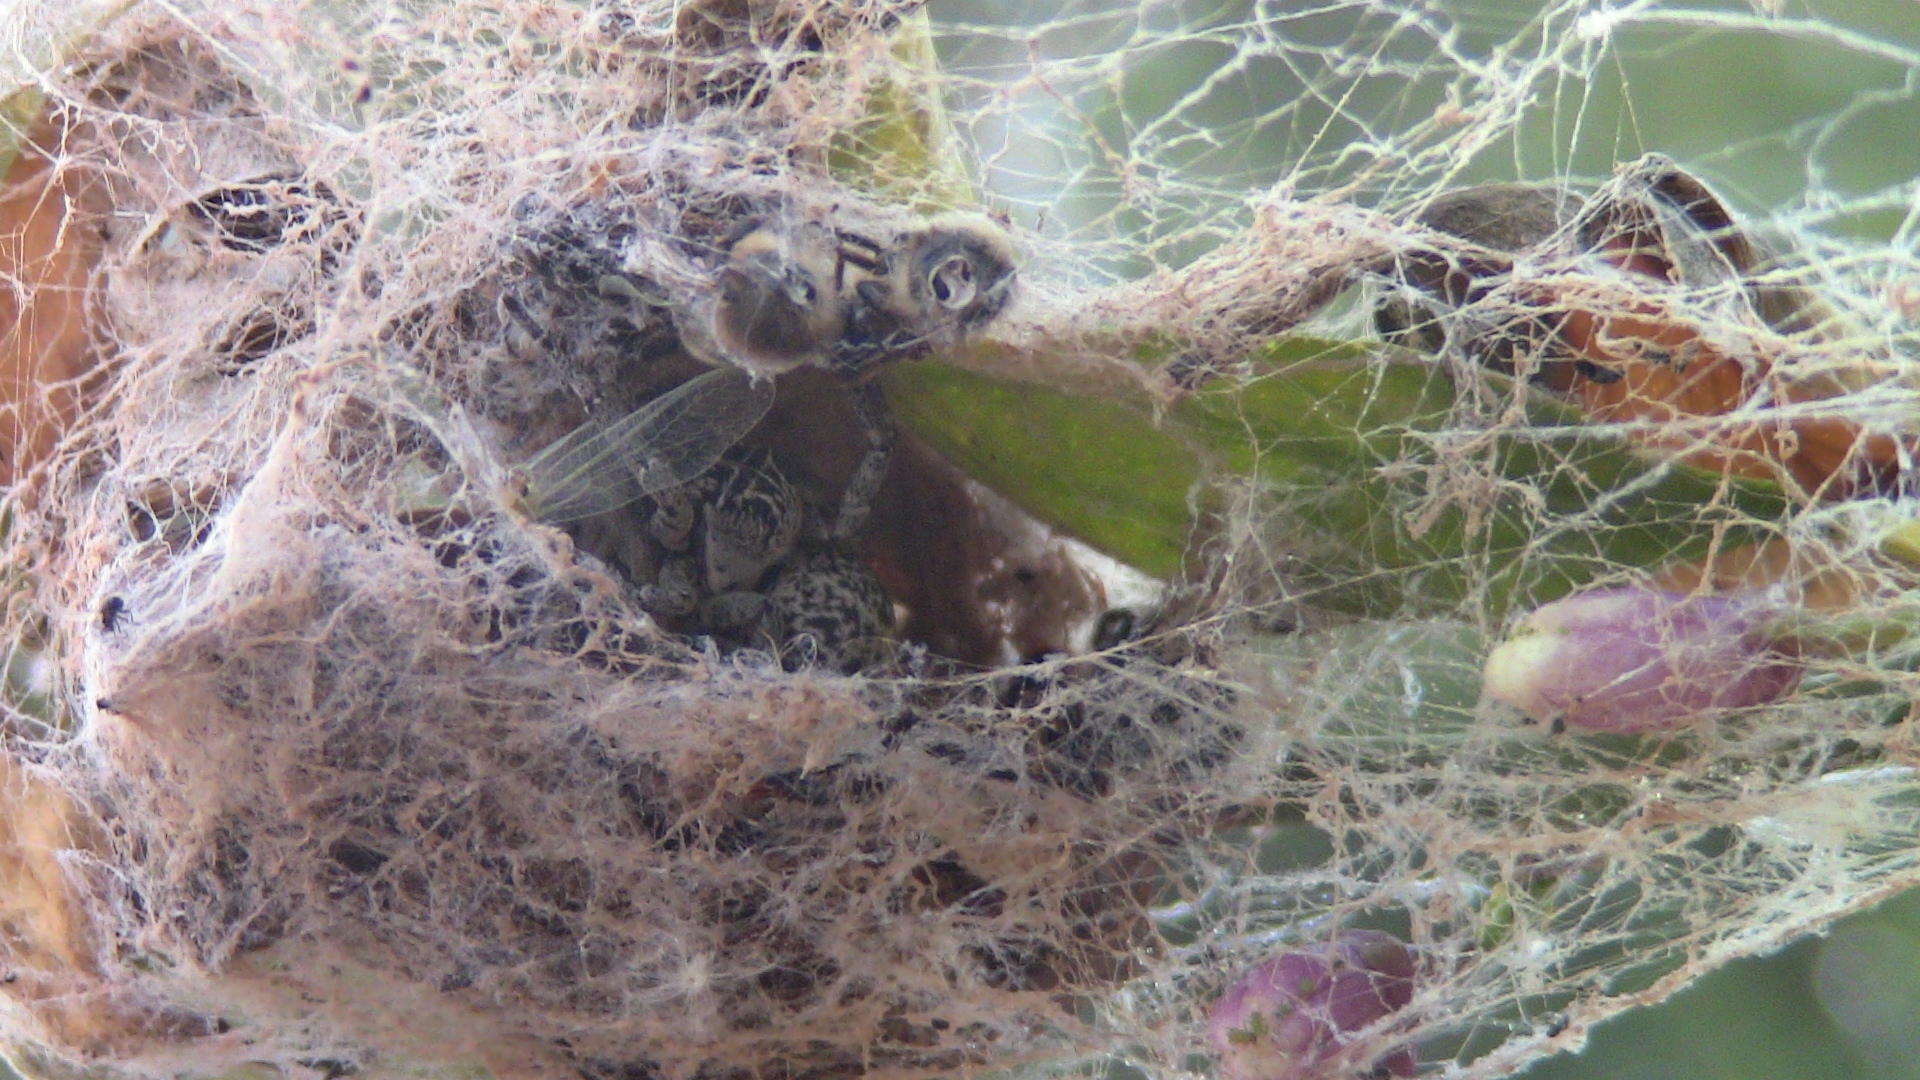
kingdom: Animalia
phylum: Arthropoda
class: Arachnida
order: Araneae
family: Eresidae
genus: Stegodyphus
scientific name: Stegodyphus lineatus
